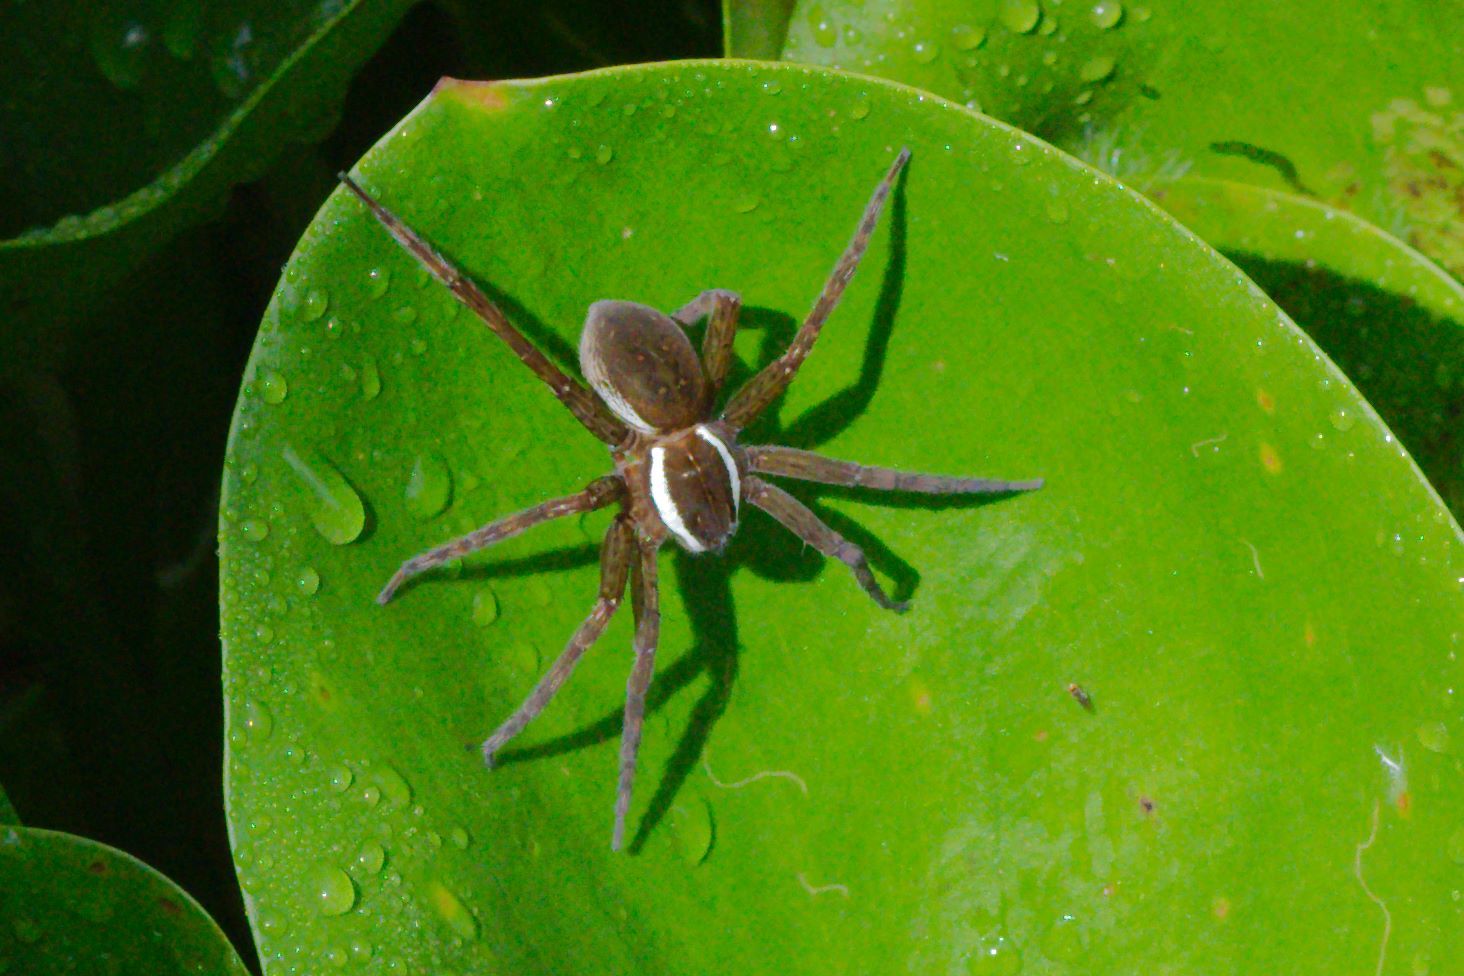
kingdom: Animalia
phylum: Arthropoda
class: Arachnida
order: Araneae
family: Pisauridae
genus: Dolomedes
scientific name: Dolomedes triton
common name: Six-spotted fishing spider
